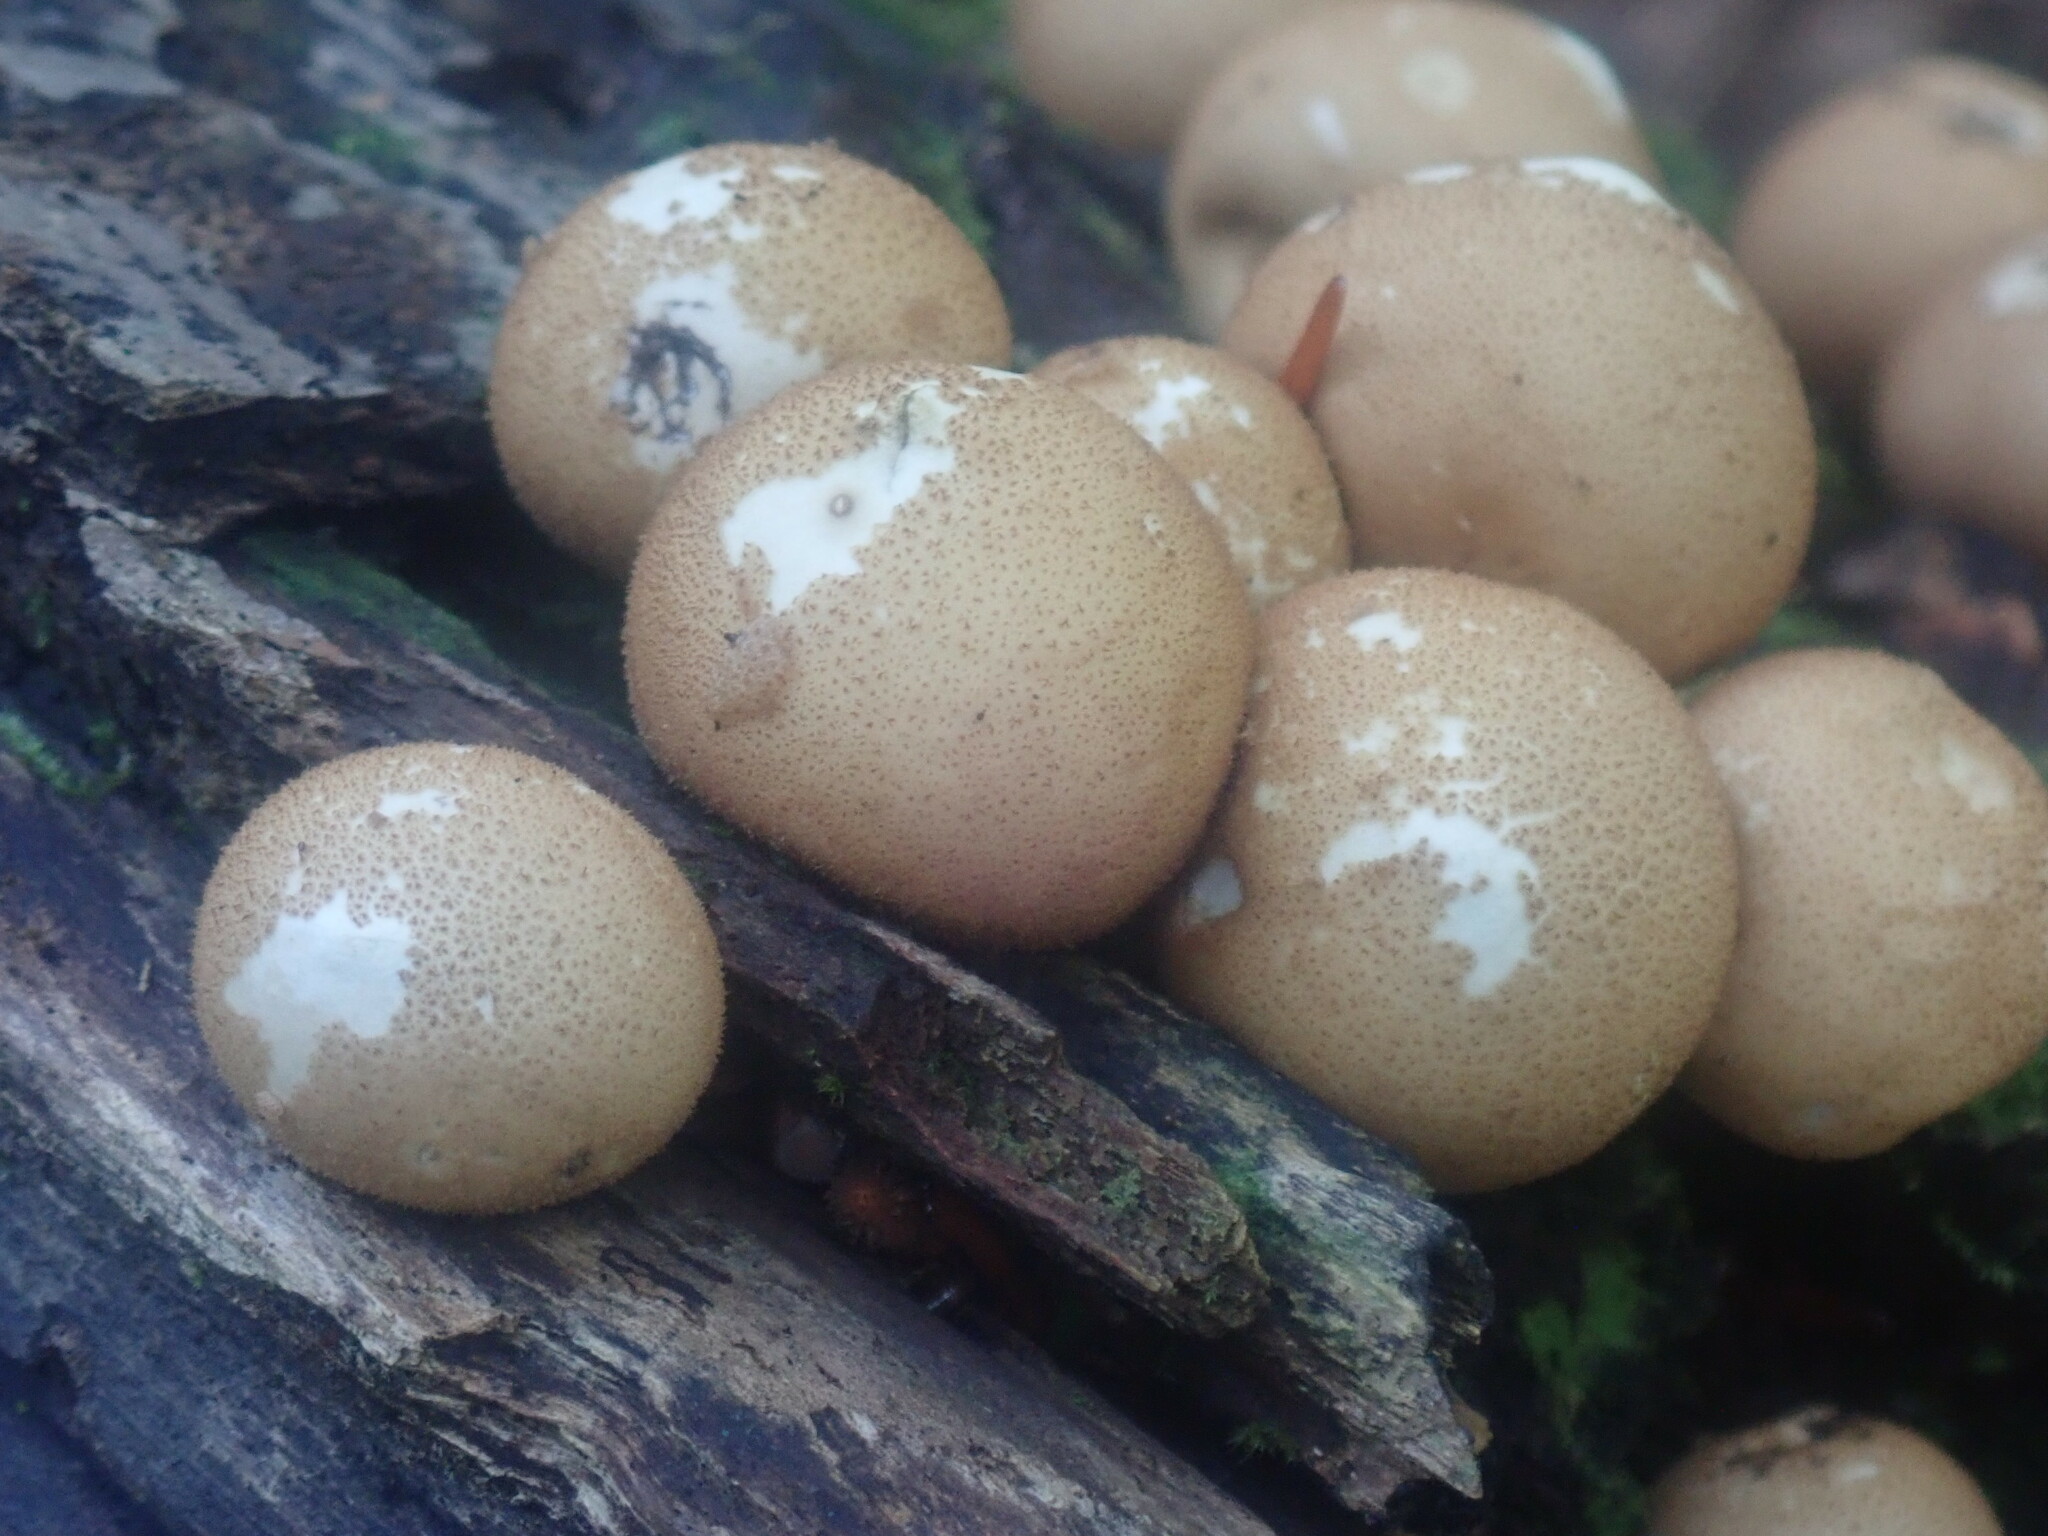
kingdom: Fungi
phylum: Basidiomycota
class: Agaricomycetes
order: Agaricales
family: Lycoperdaceae
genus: Apioperdon
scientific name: Apioperdon pyriforme
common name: Pear-shaped puffball
